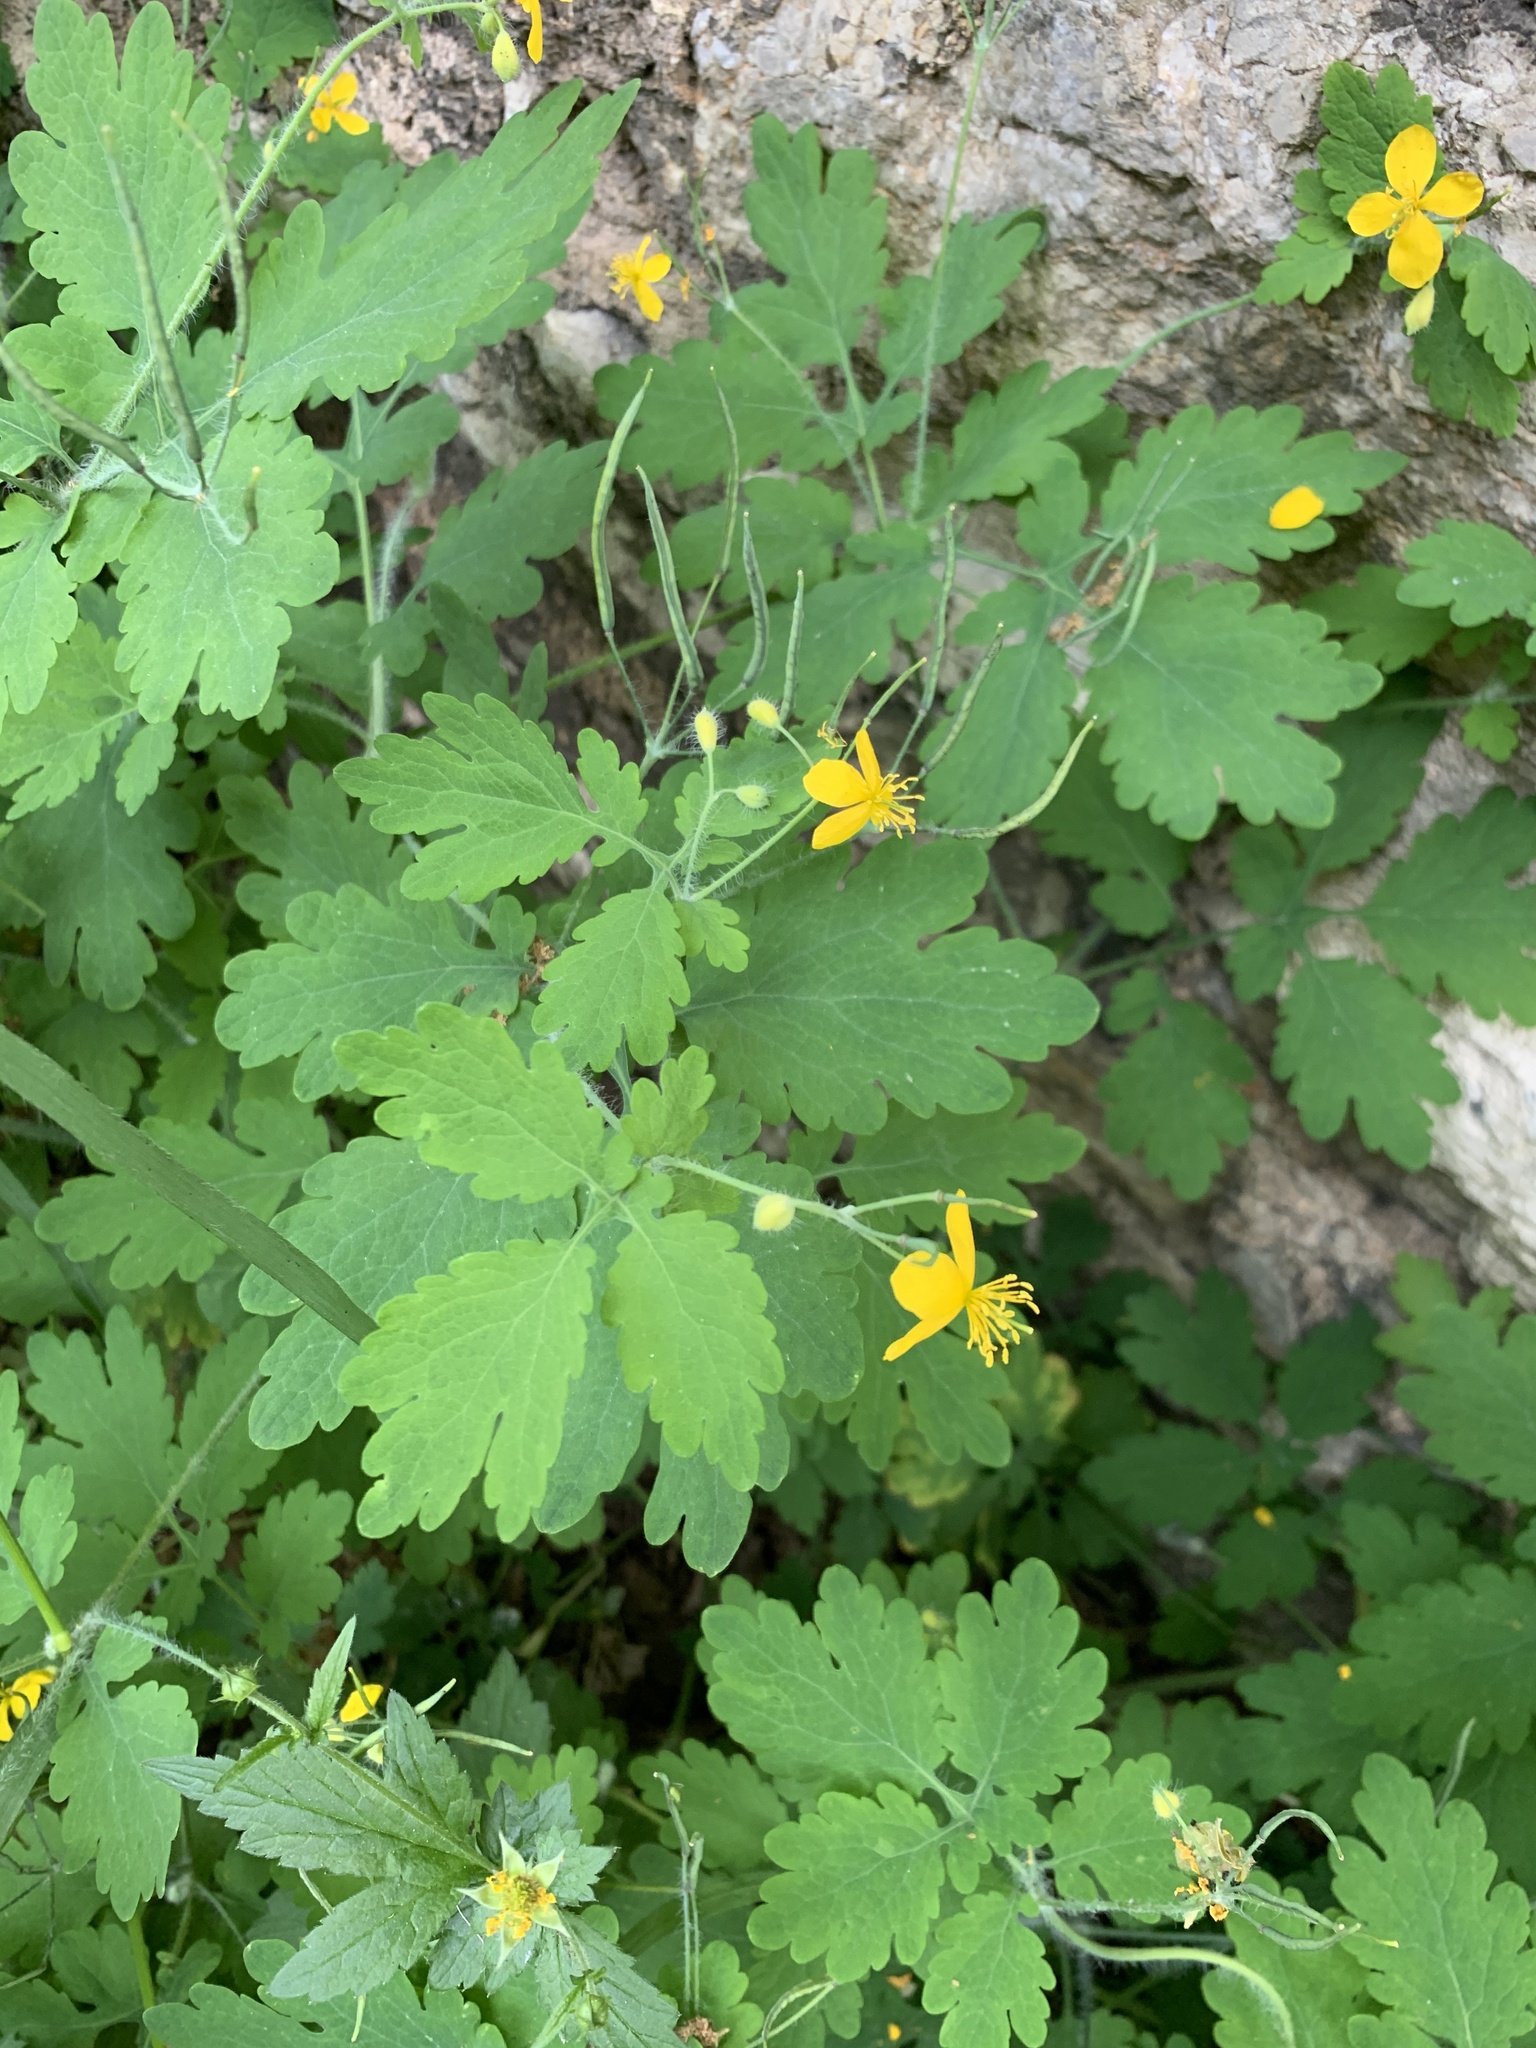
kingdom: Plantae
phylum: Tracheophyta
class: Magnoliopsida
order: Ranunculales
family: Papaveraceae
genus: Chelidonium
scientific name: Chelidonium majus
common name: Greater celandine
